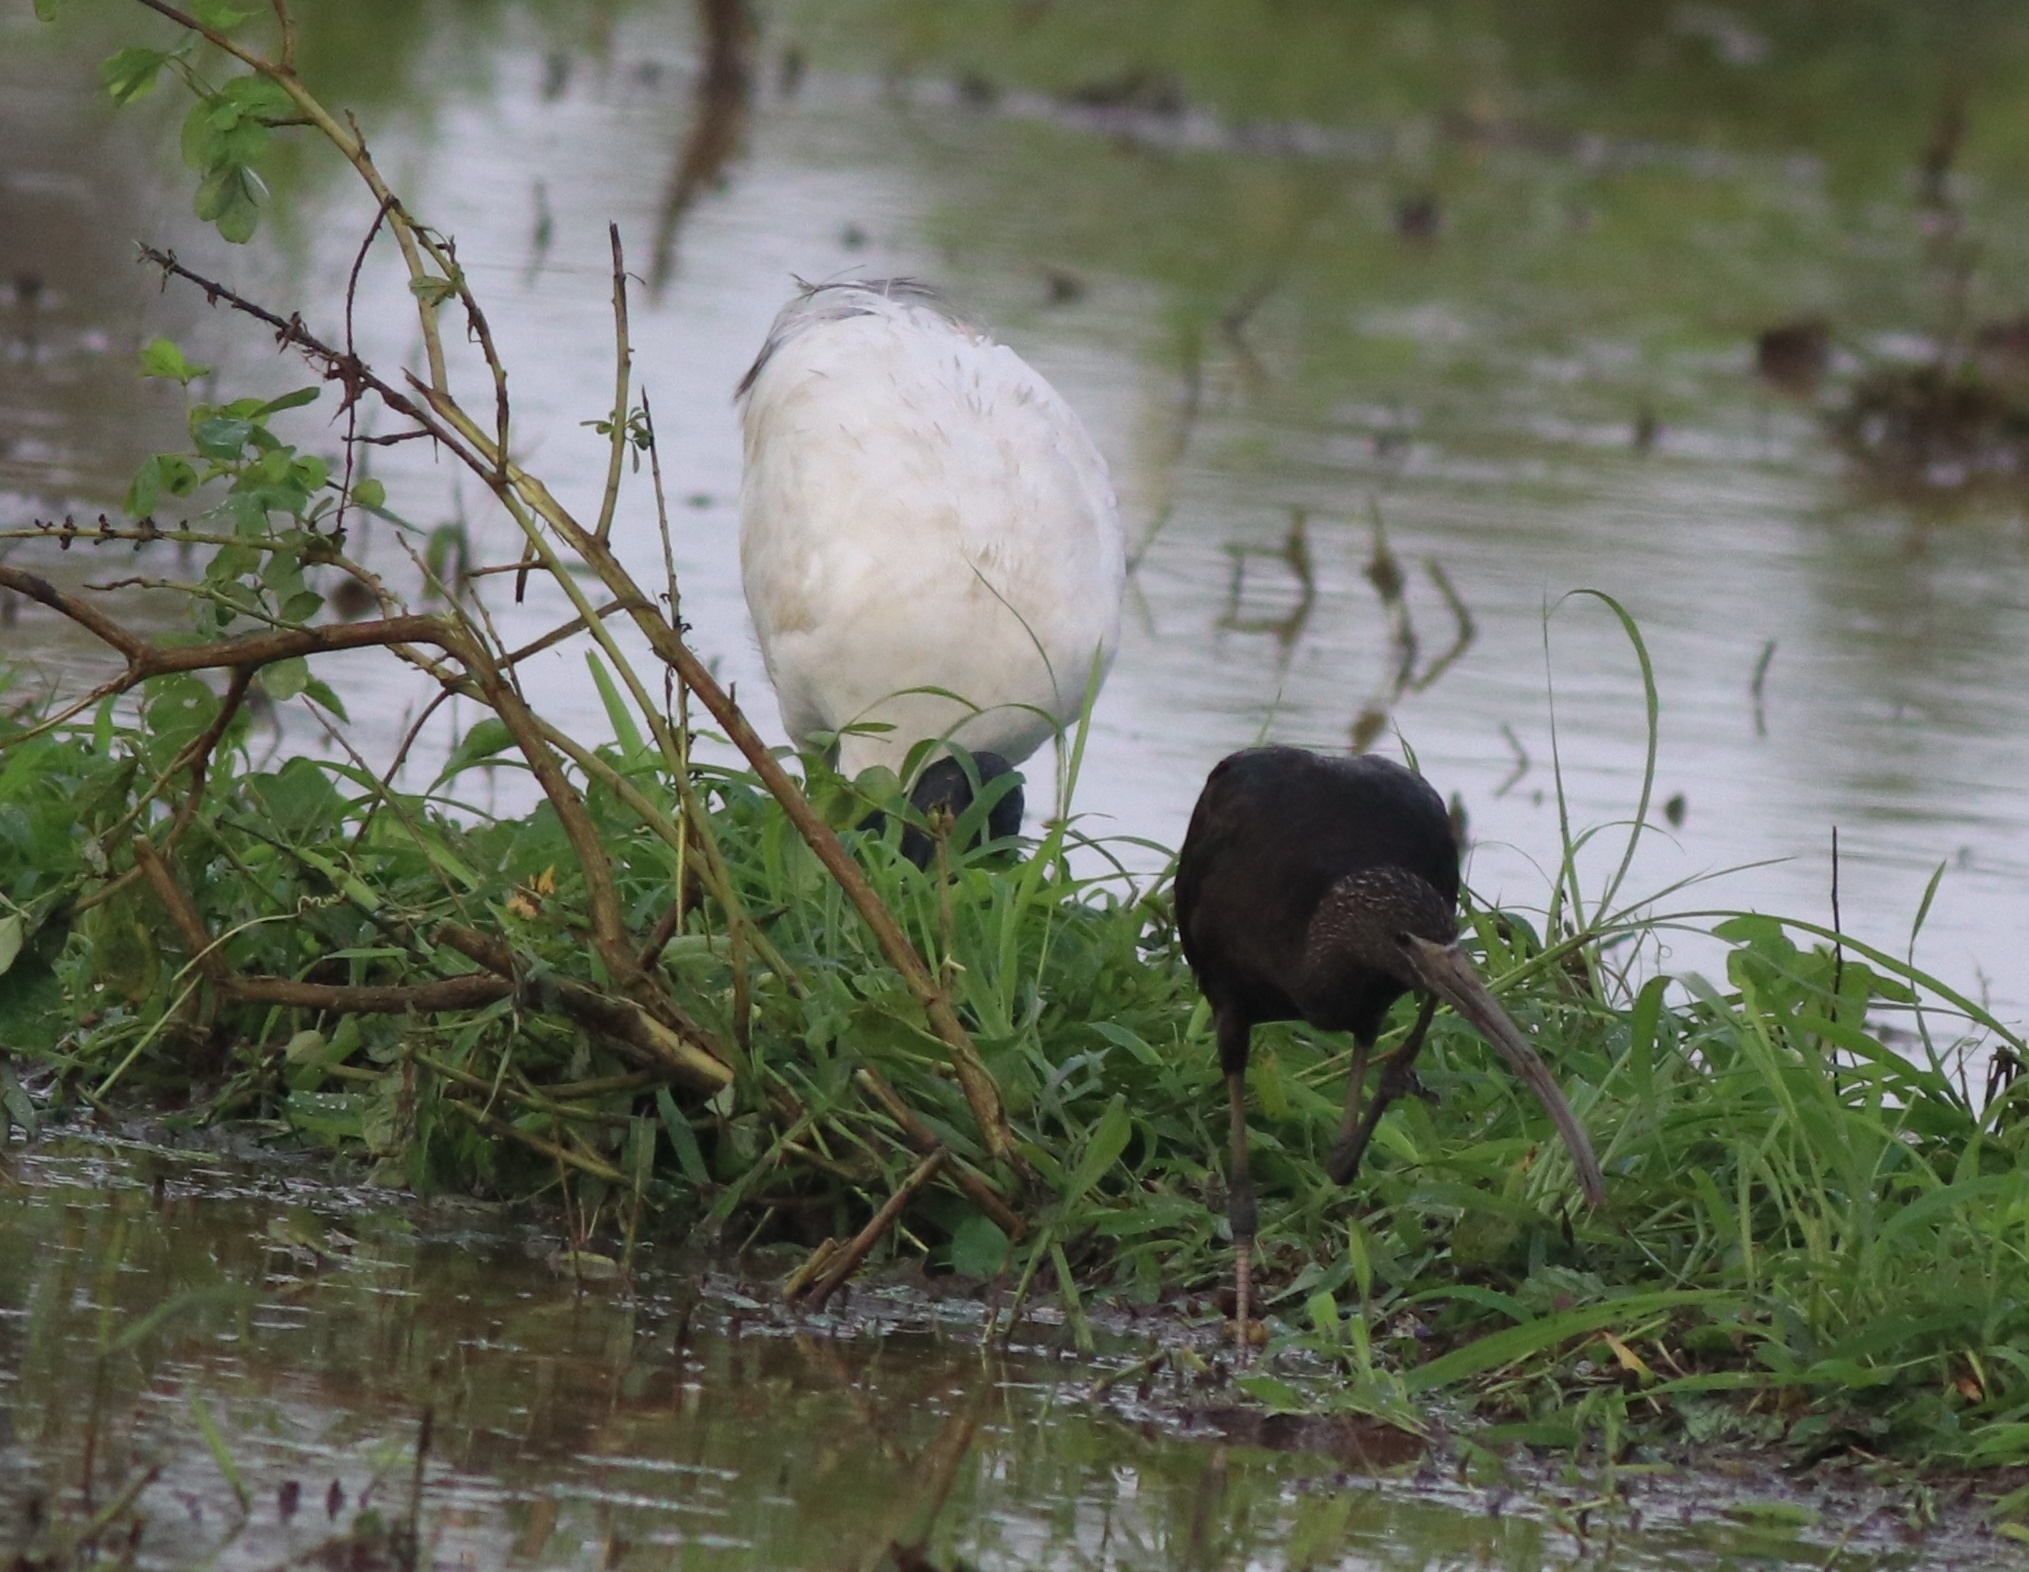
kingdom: Animalia
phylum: Chordata
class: Aves
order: Pelecaniformes
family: Threskiornithidae
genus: Plegadis
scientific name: Plegadis falcinellus
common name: Glossy ibis
